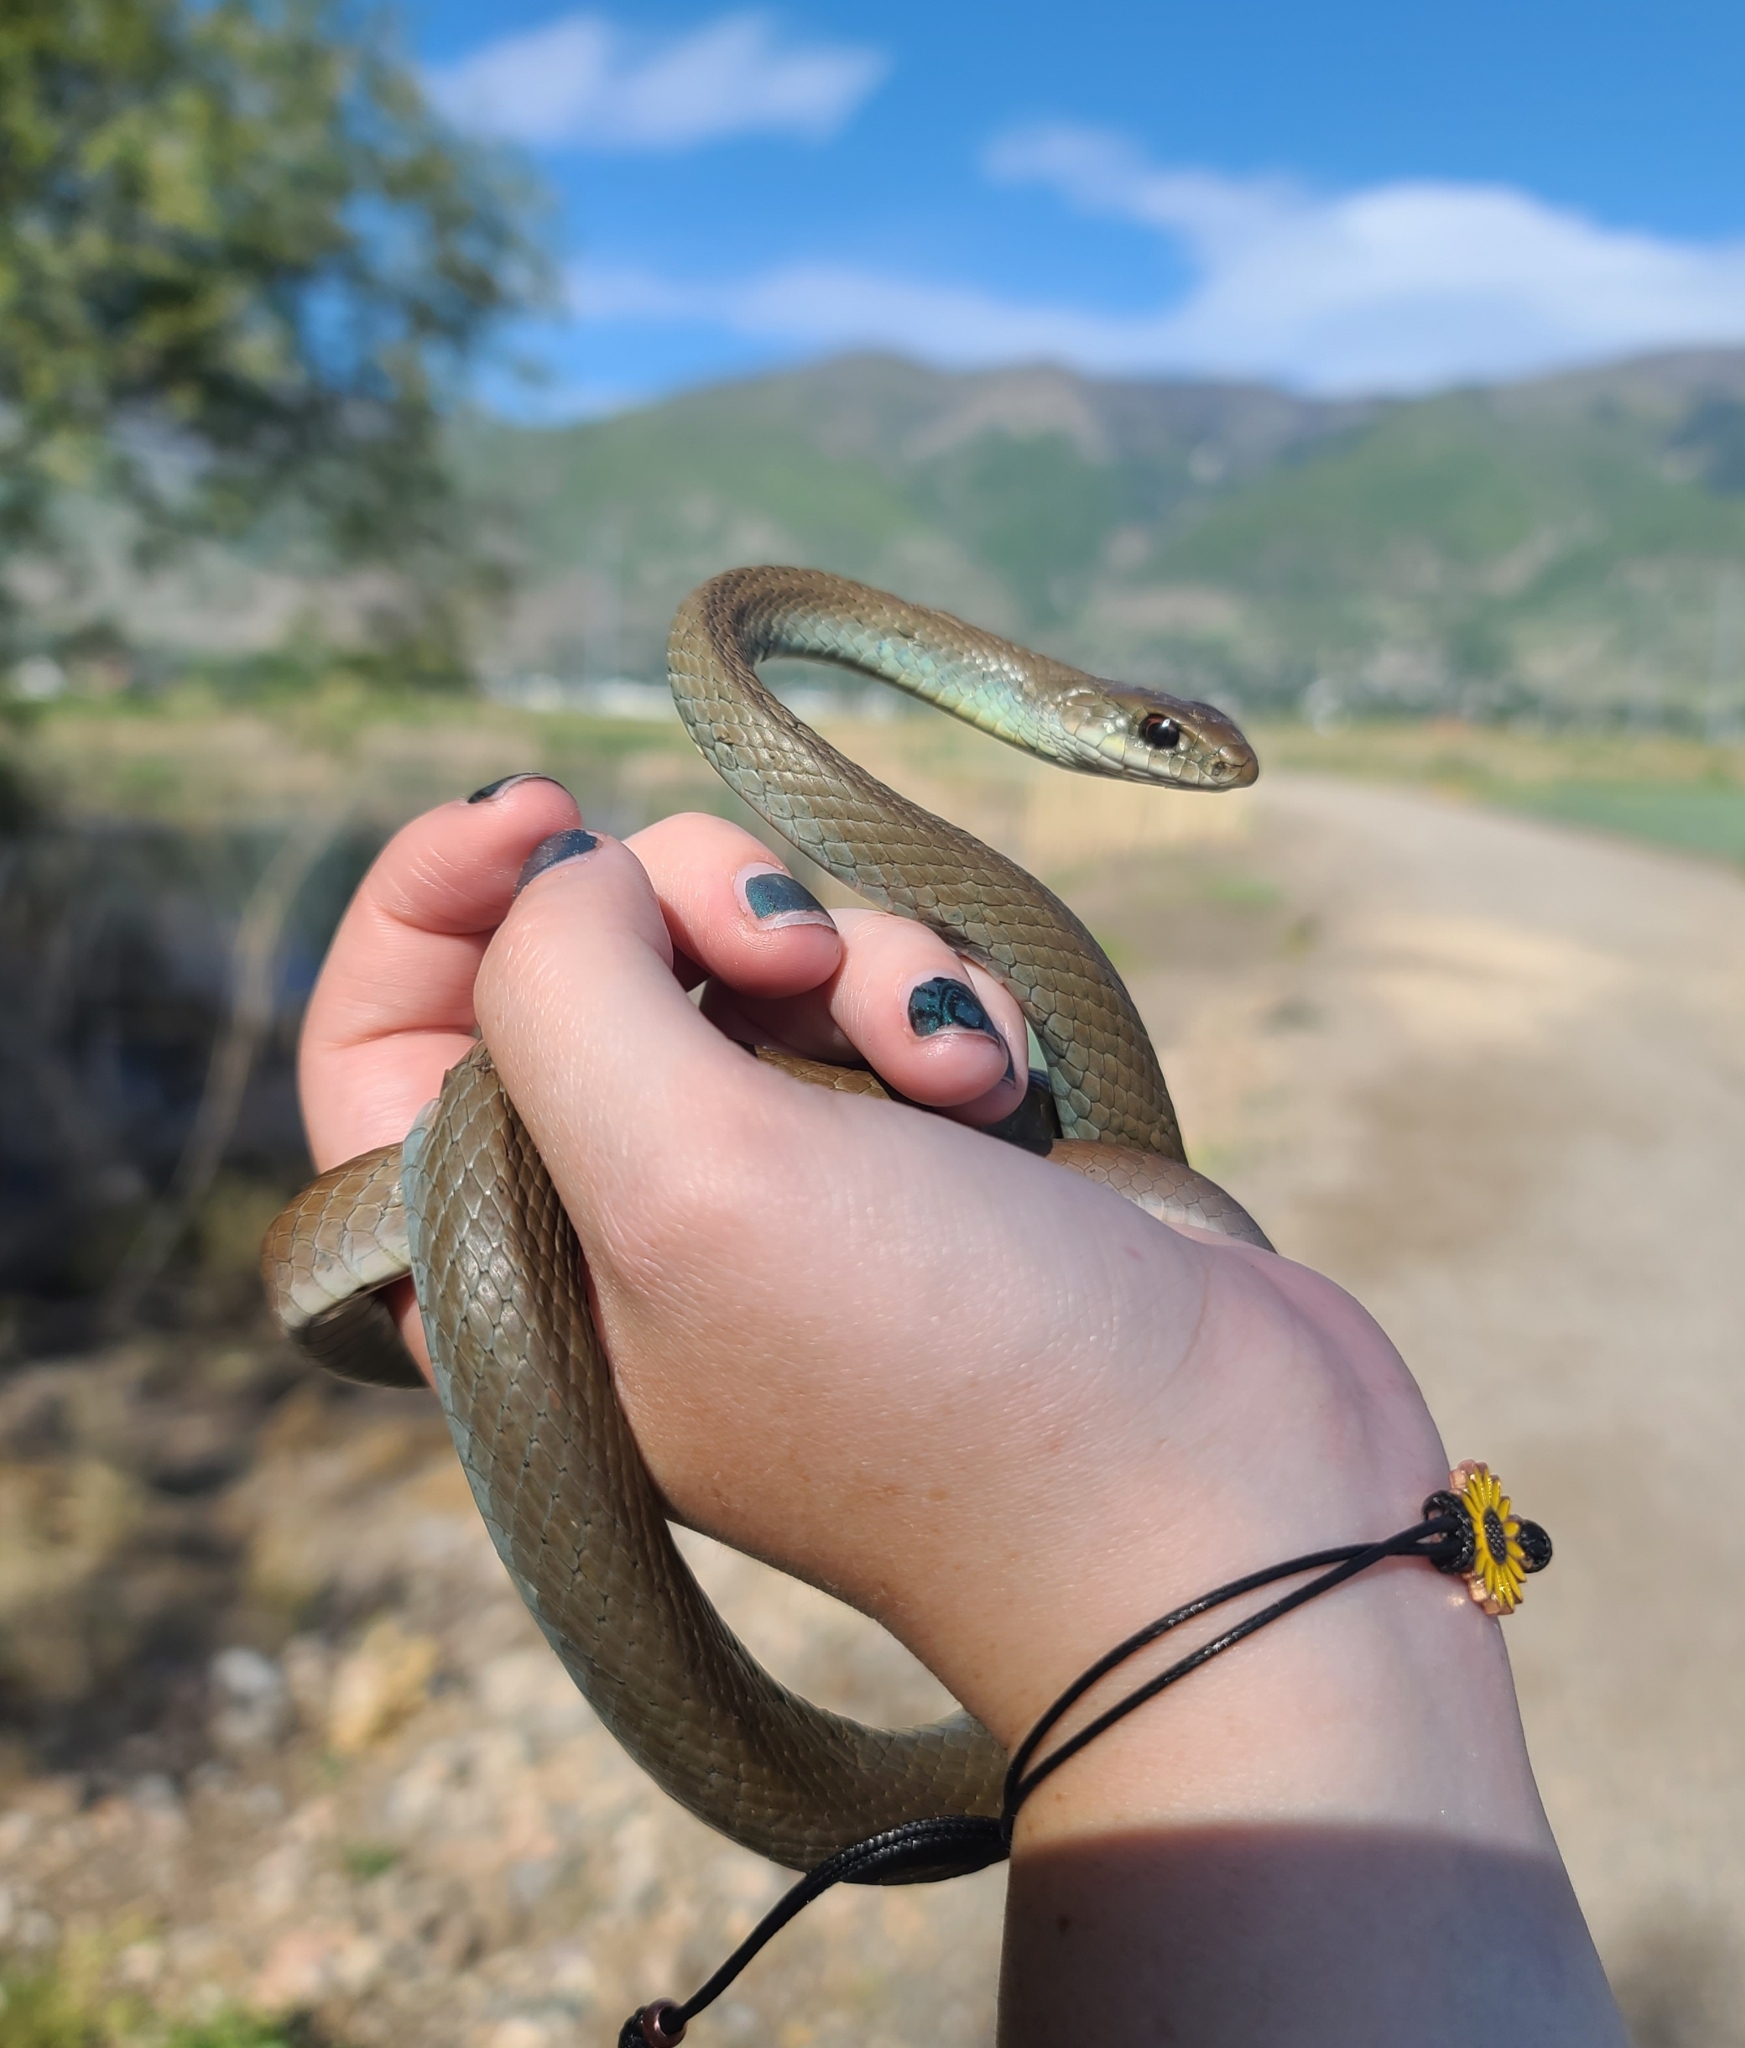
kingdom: Animalia
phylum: Chordata
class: Squamata
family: Colubridae
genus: Coluber
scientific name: Coluber constrictor
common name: Eastern racer
